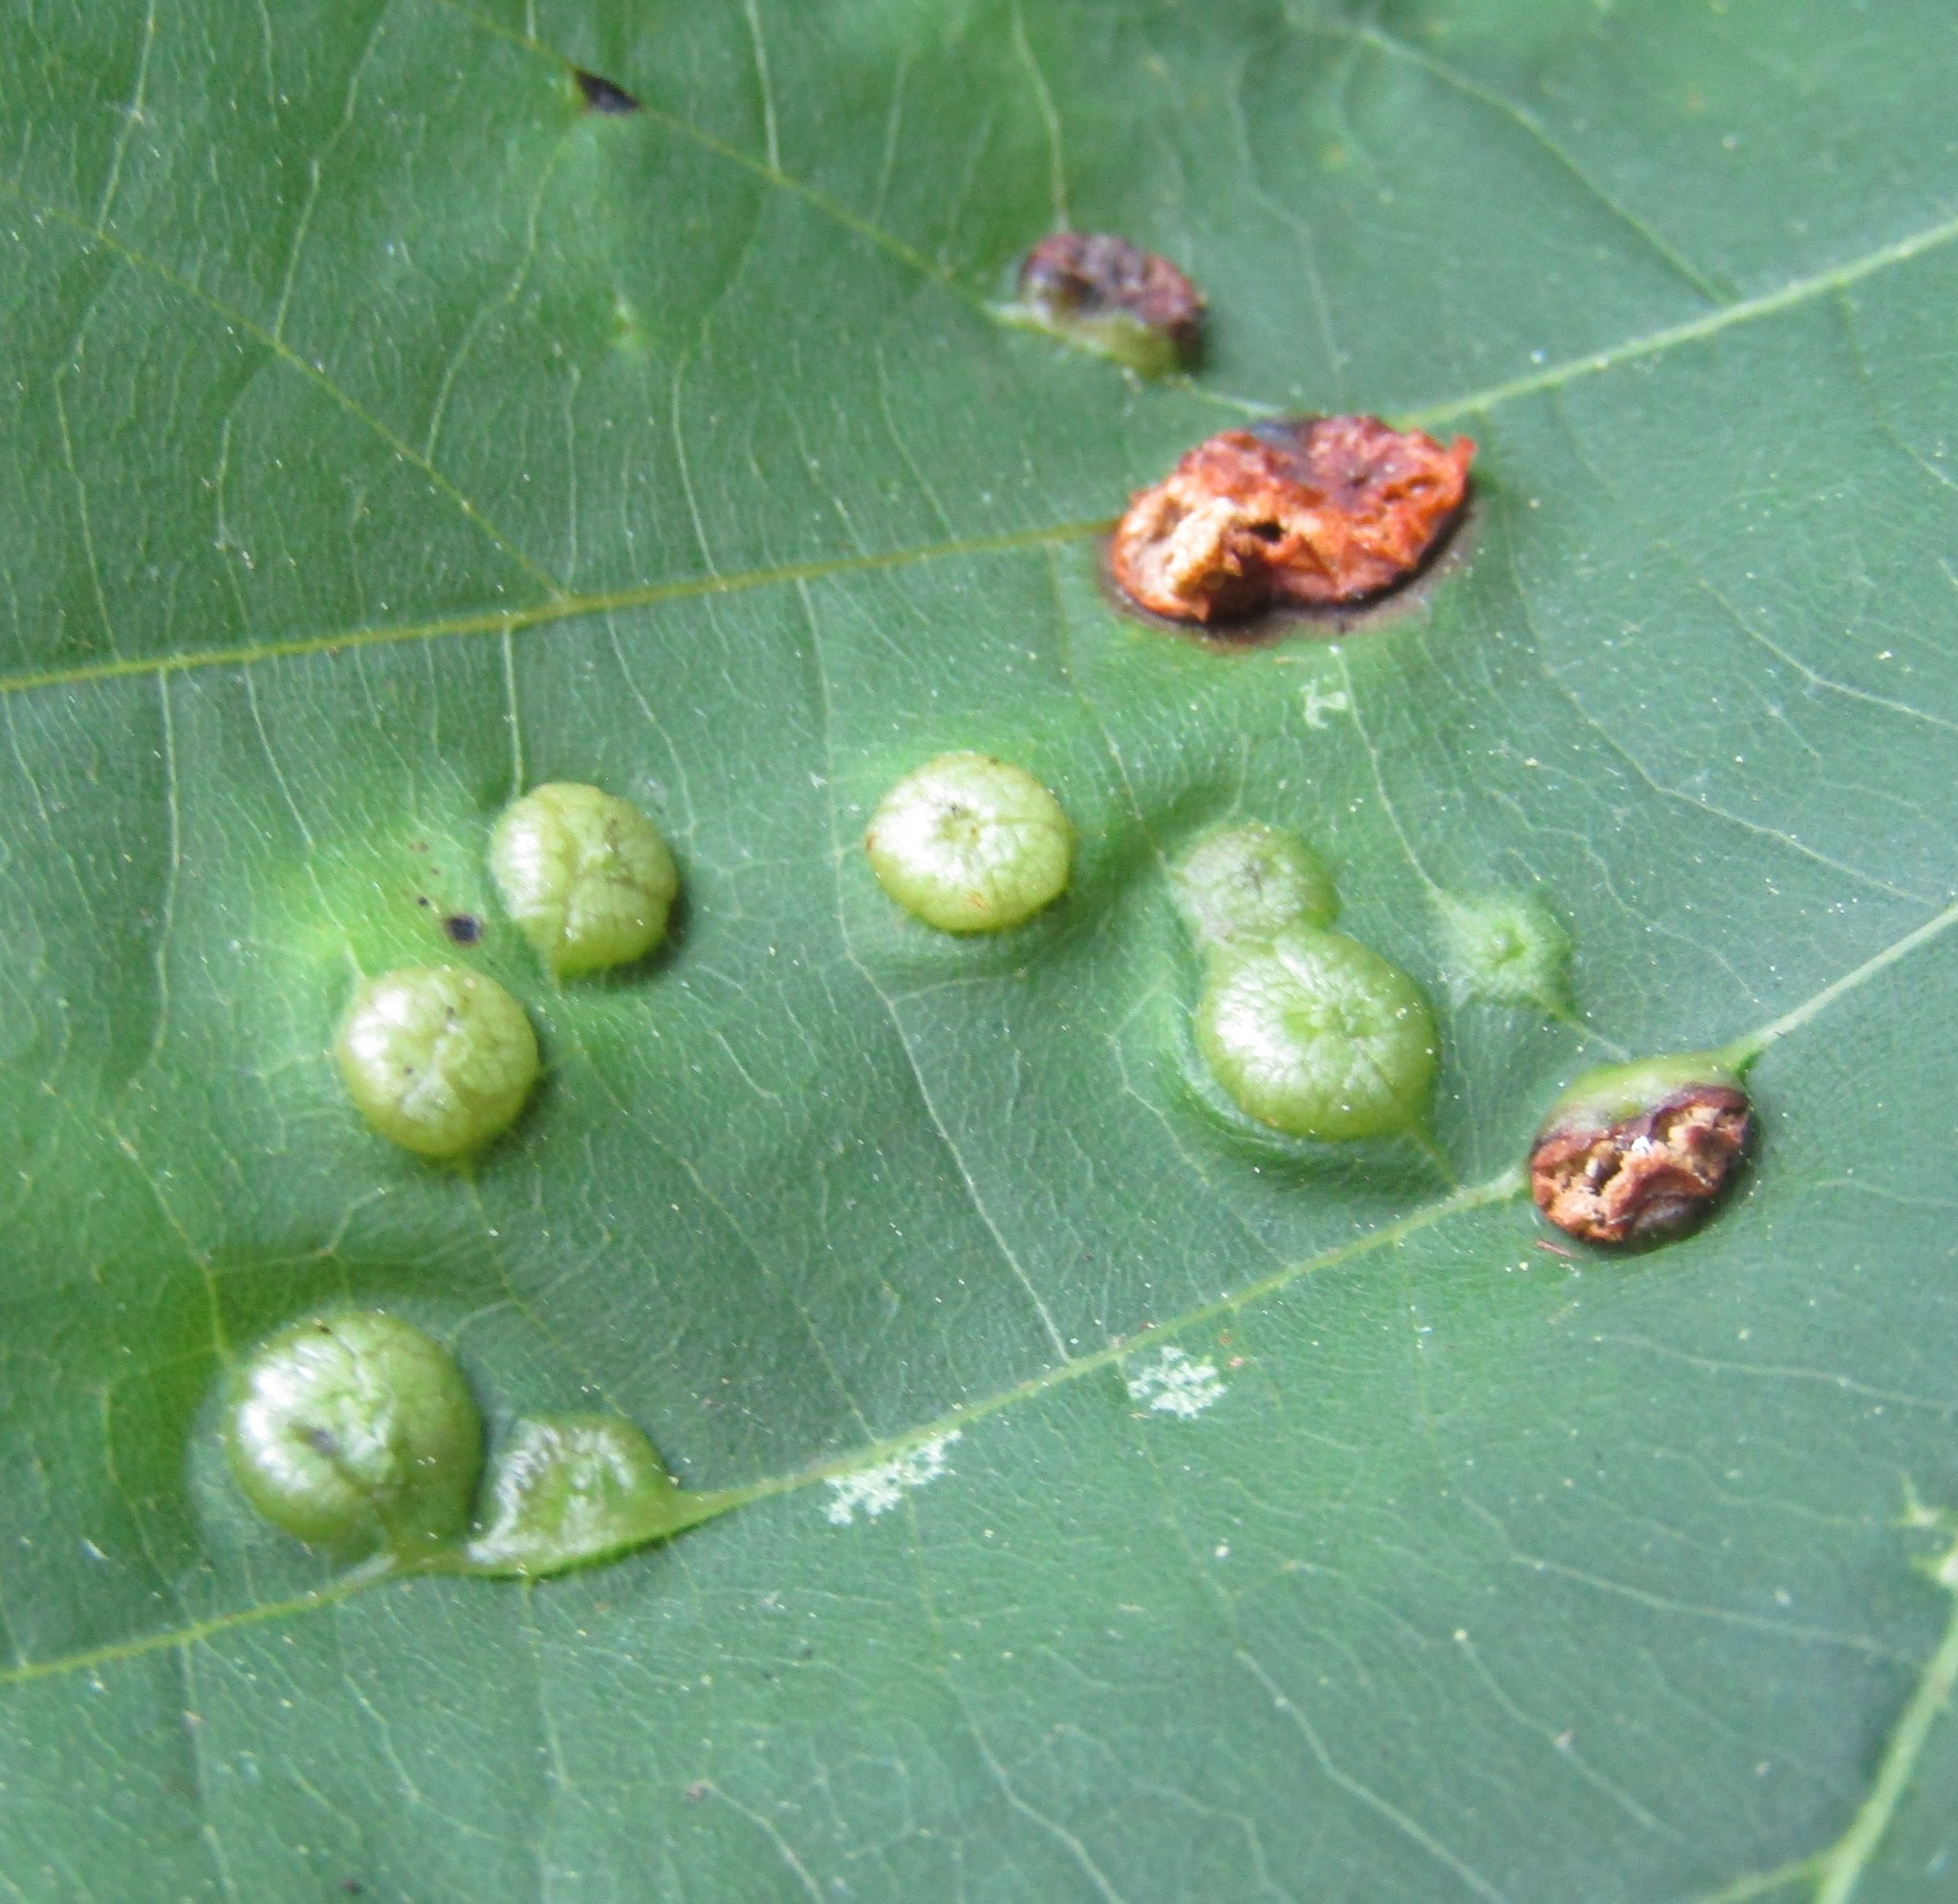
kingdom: Animalia
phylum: Arthropoda
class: Insecta
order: Diptera
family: Cecidomyiidae
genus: Contarinia
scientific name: Contarinia verrucicola
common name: Linden wart gall midge
